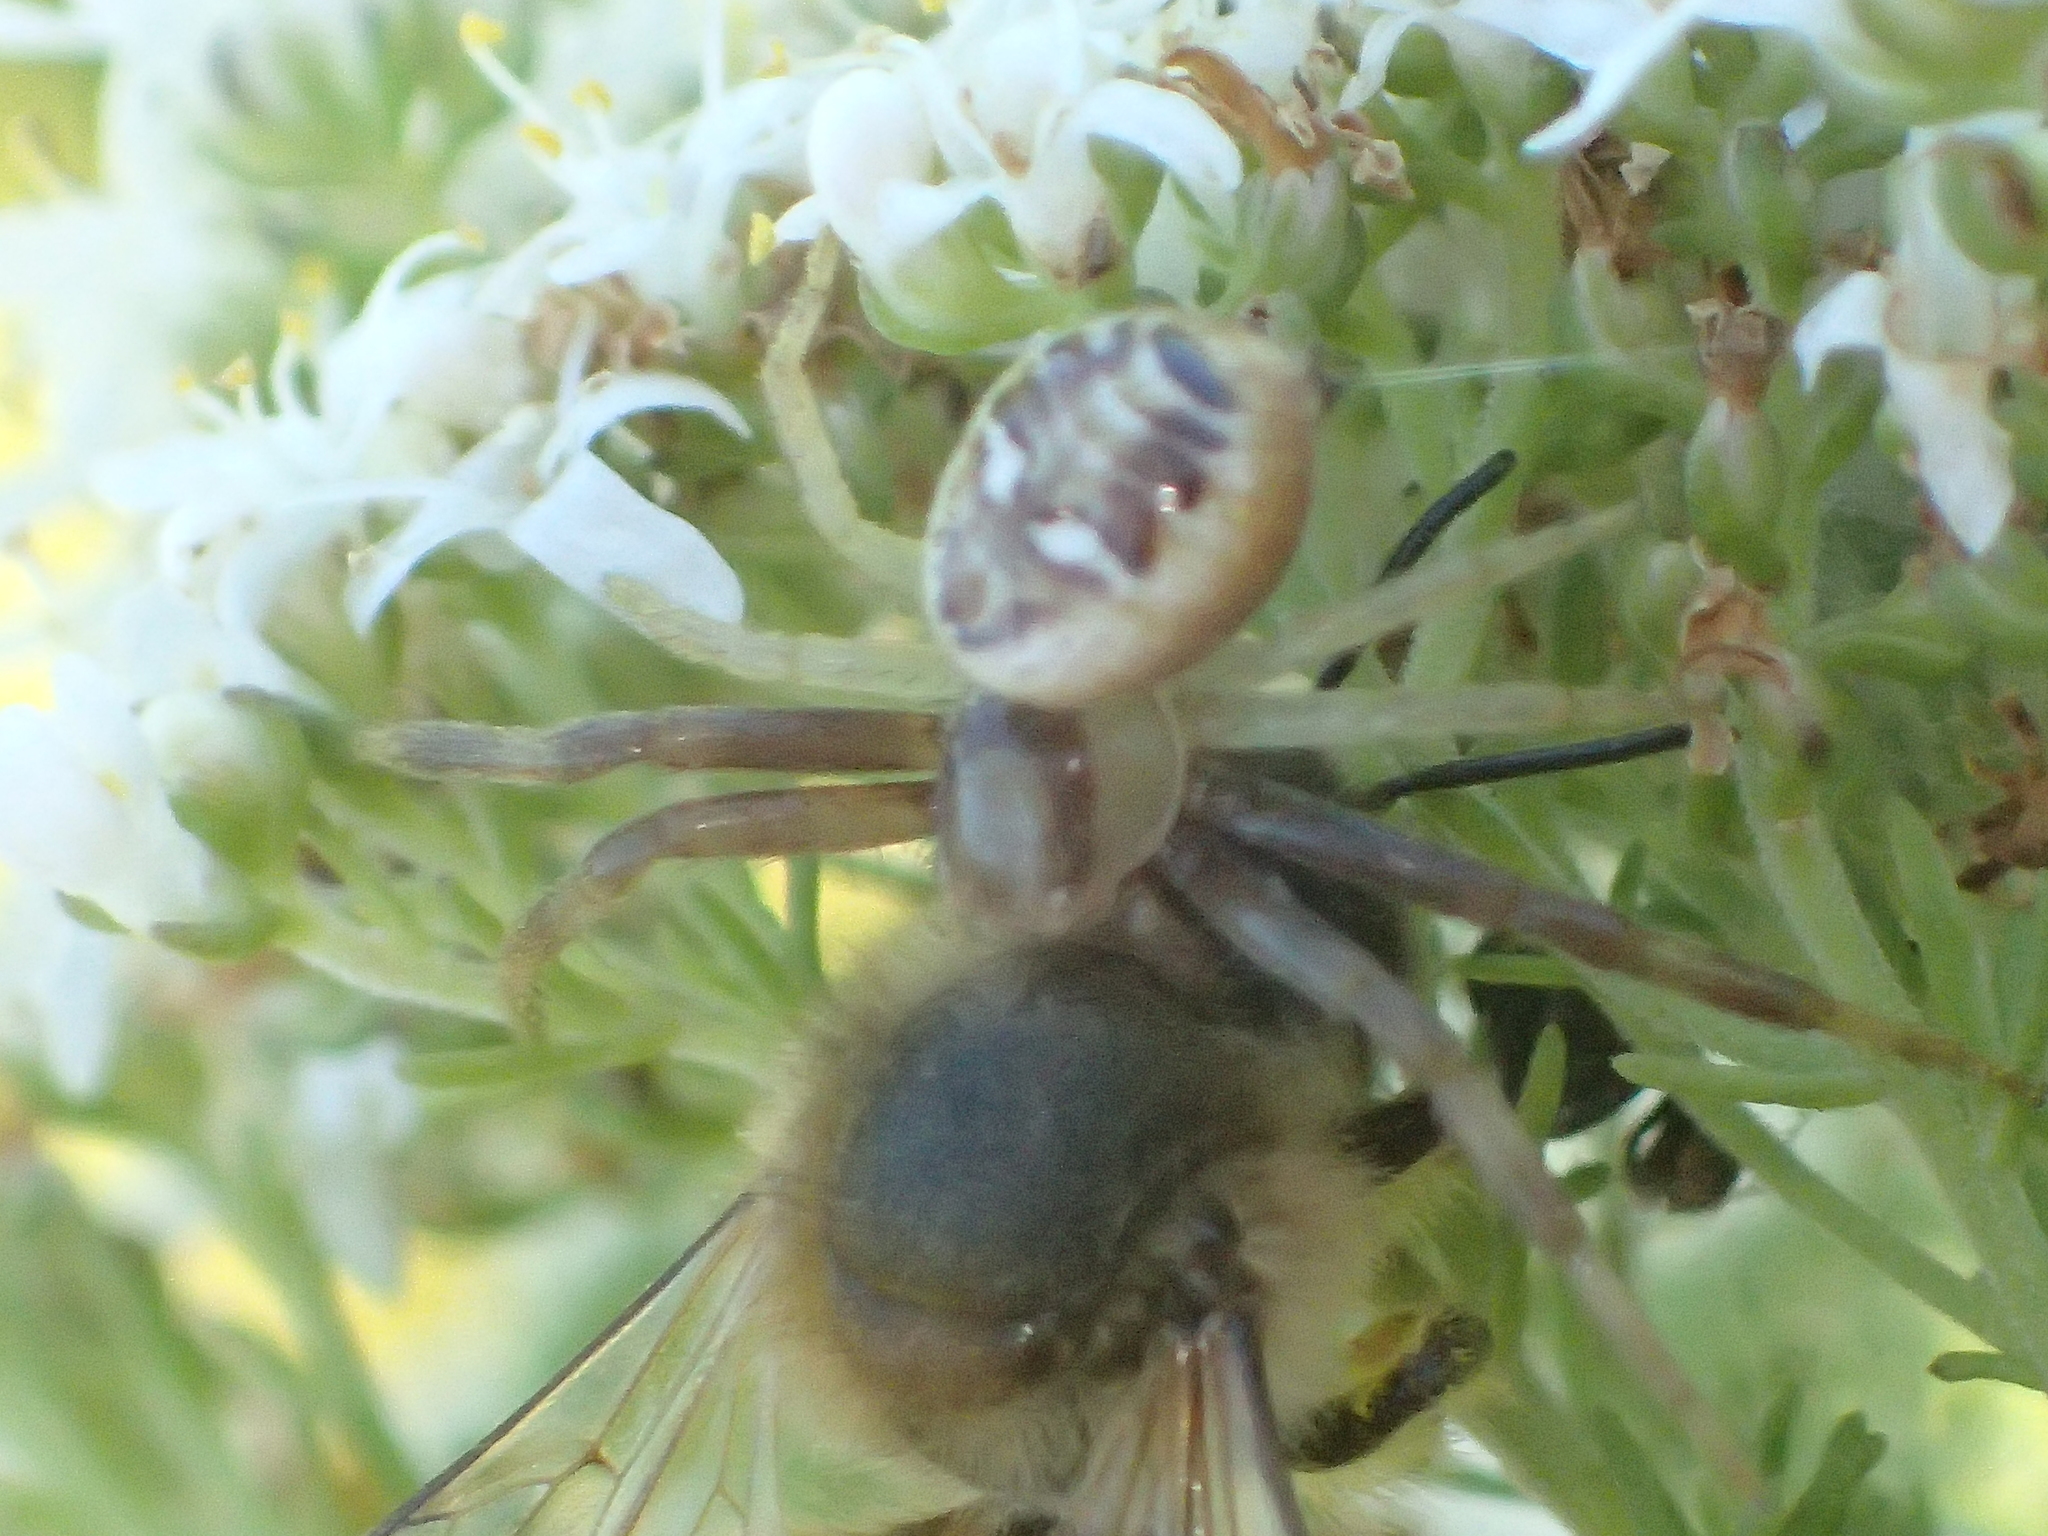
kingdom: Animalia
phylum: Arthropoda
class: Arachnida
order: Araneae
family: Thomisidae
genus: Synema
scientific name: Synema imitatrix
